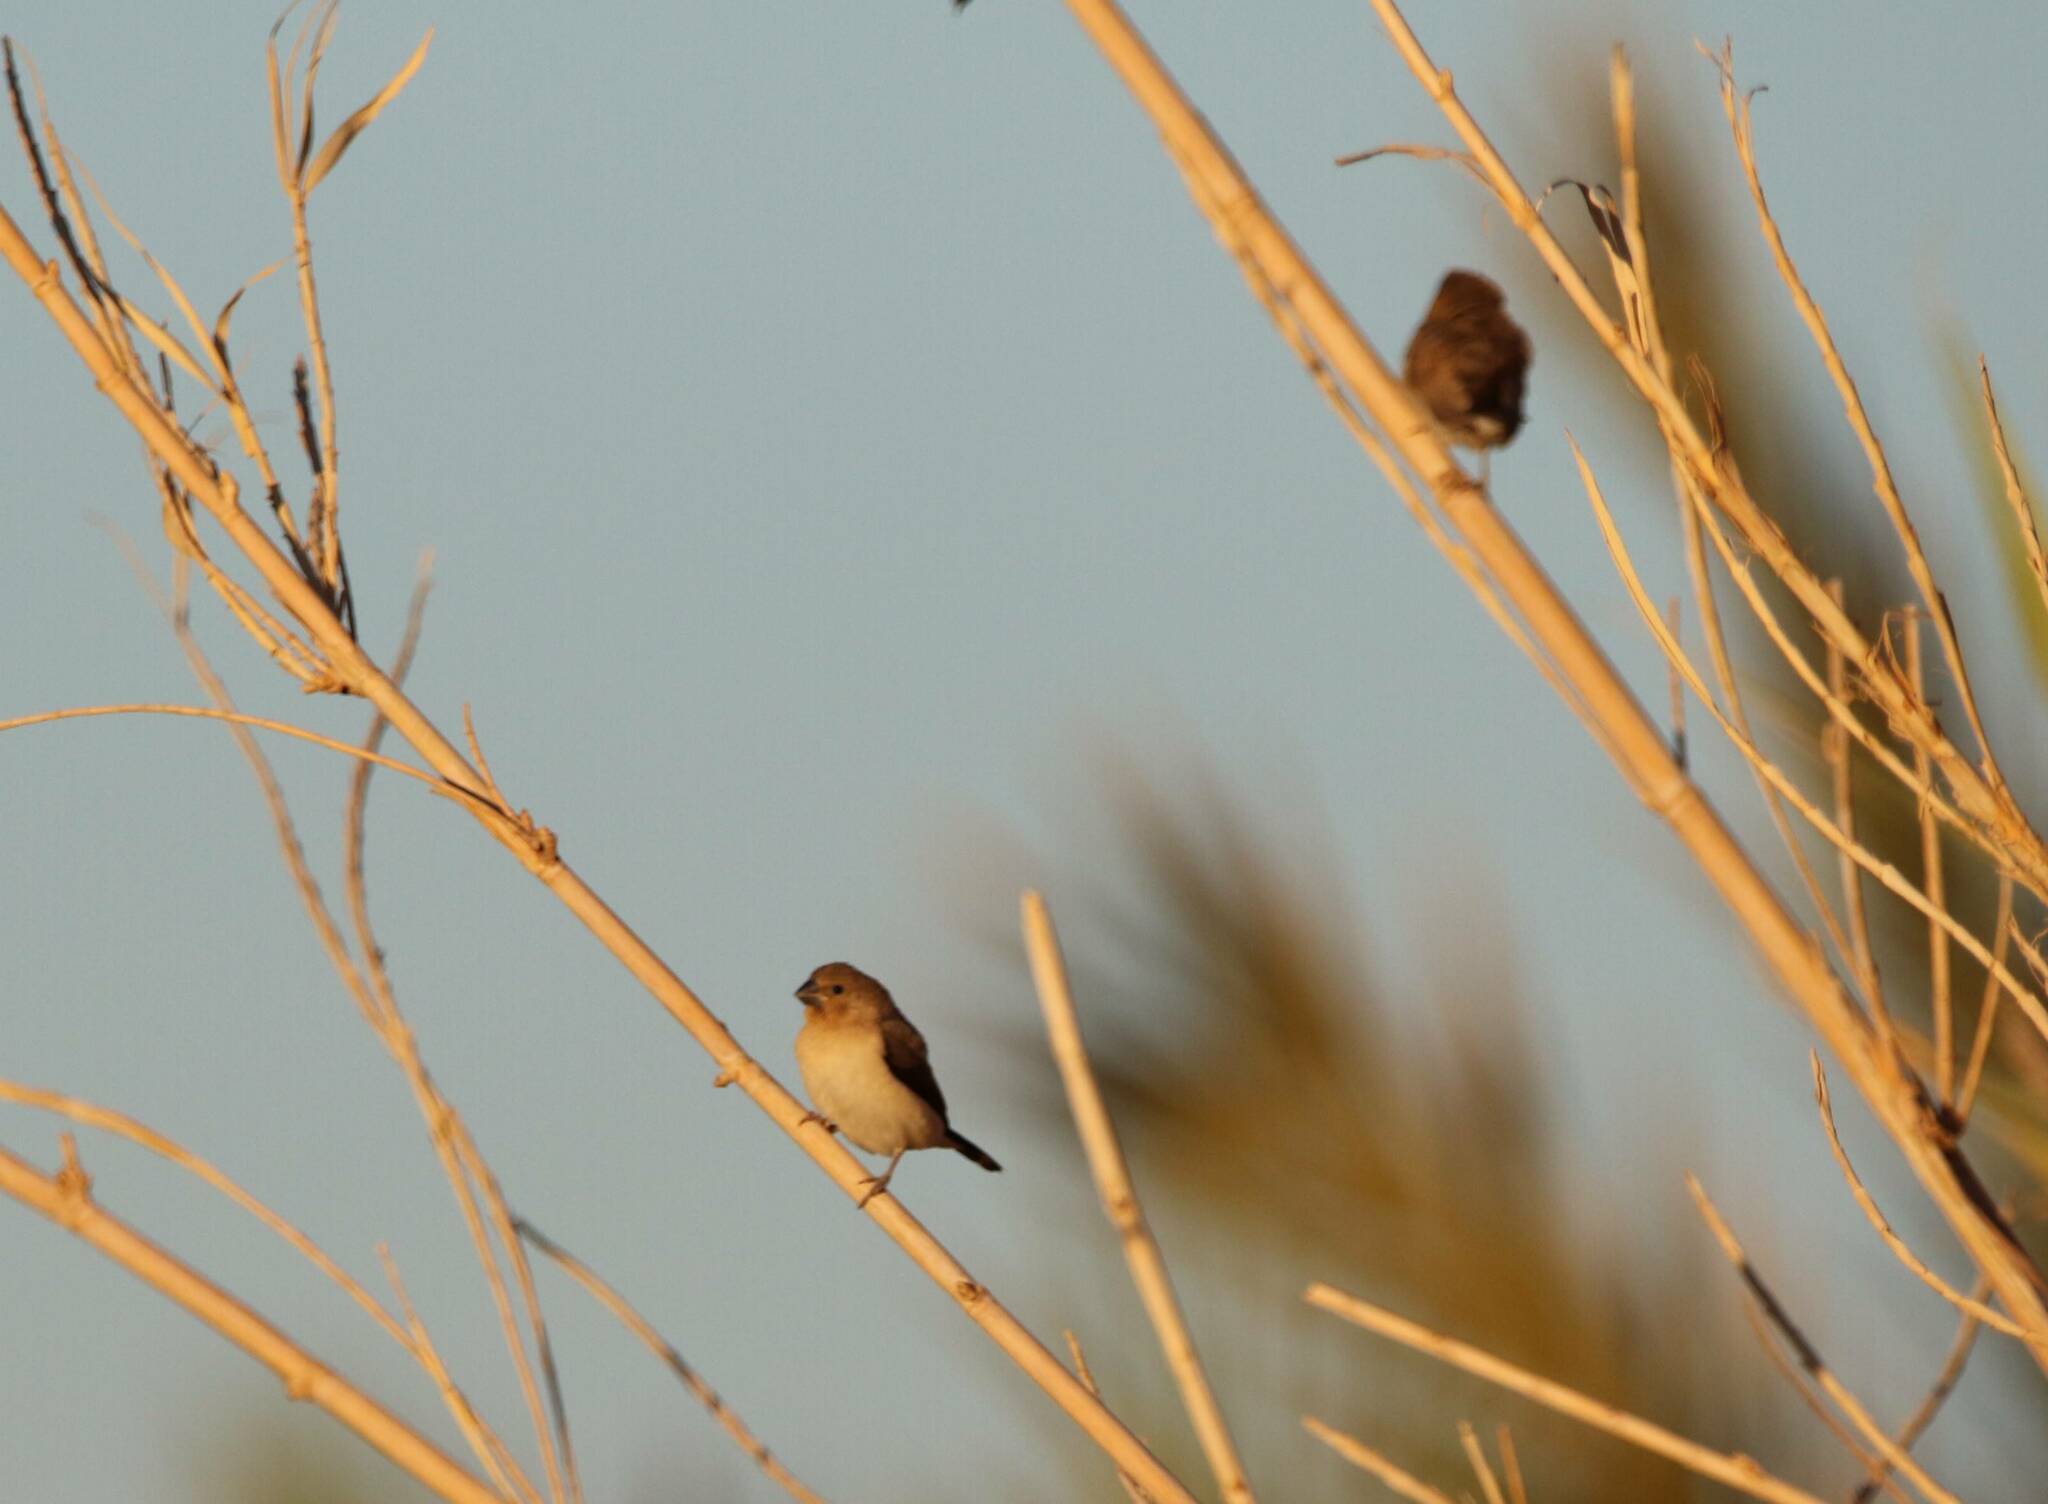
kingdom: Animalia
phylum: Chordata
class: Aves
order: Passeriformes
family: Estrildidae
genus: Euodice
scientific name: Euodice cantans
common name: African silverbill
